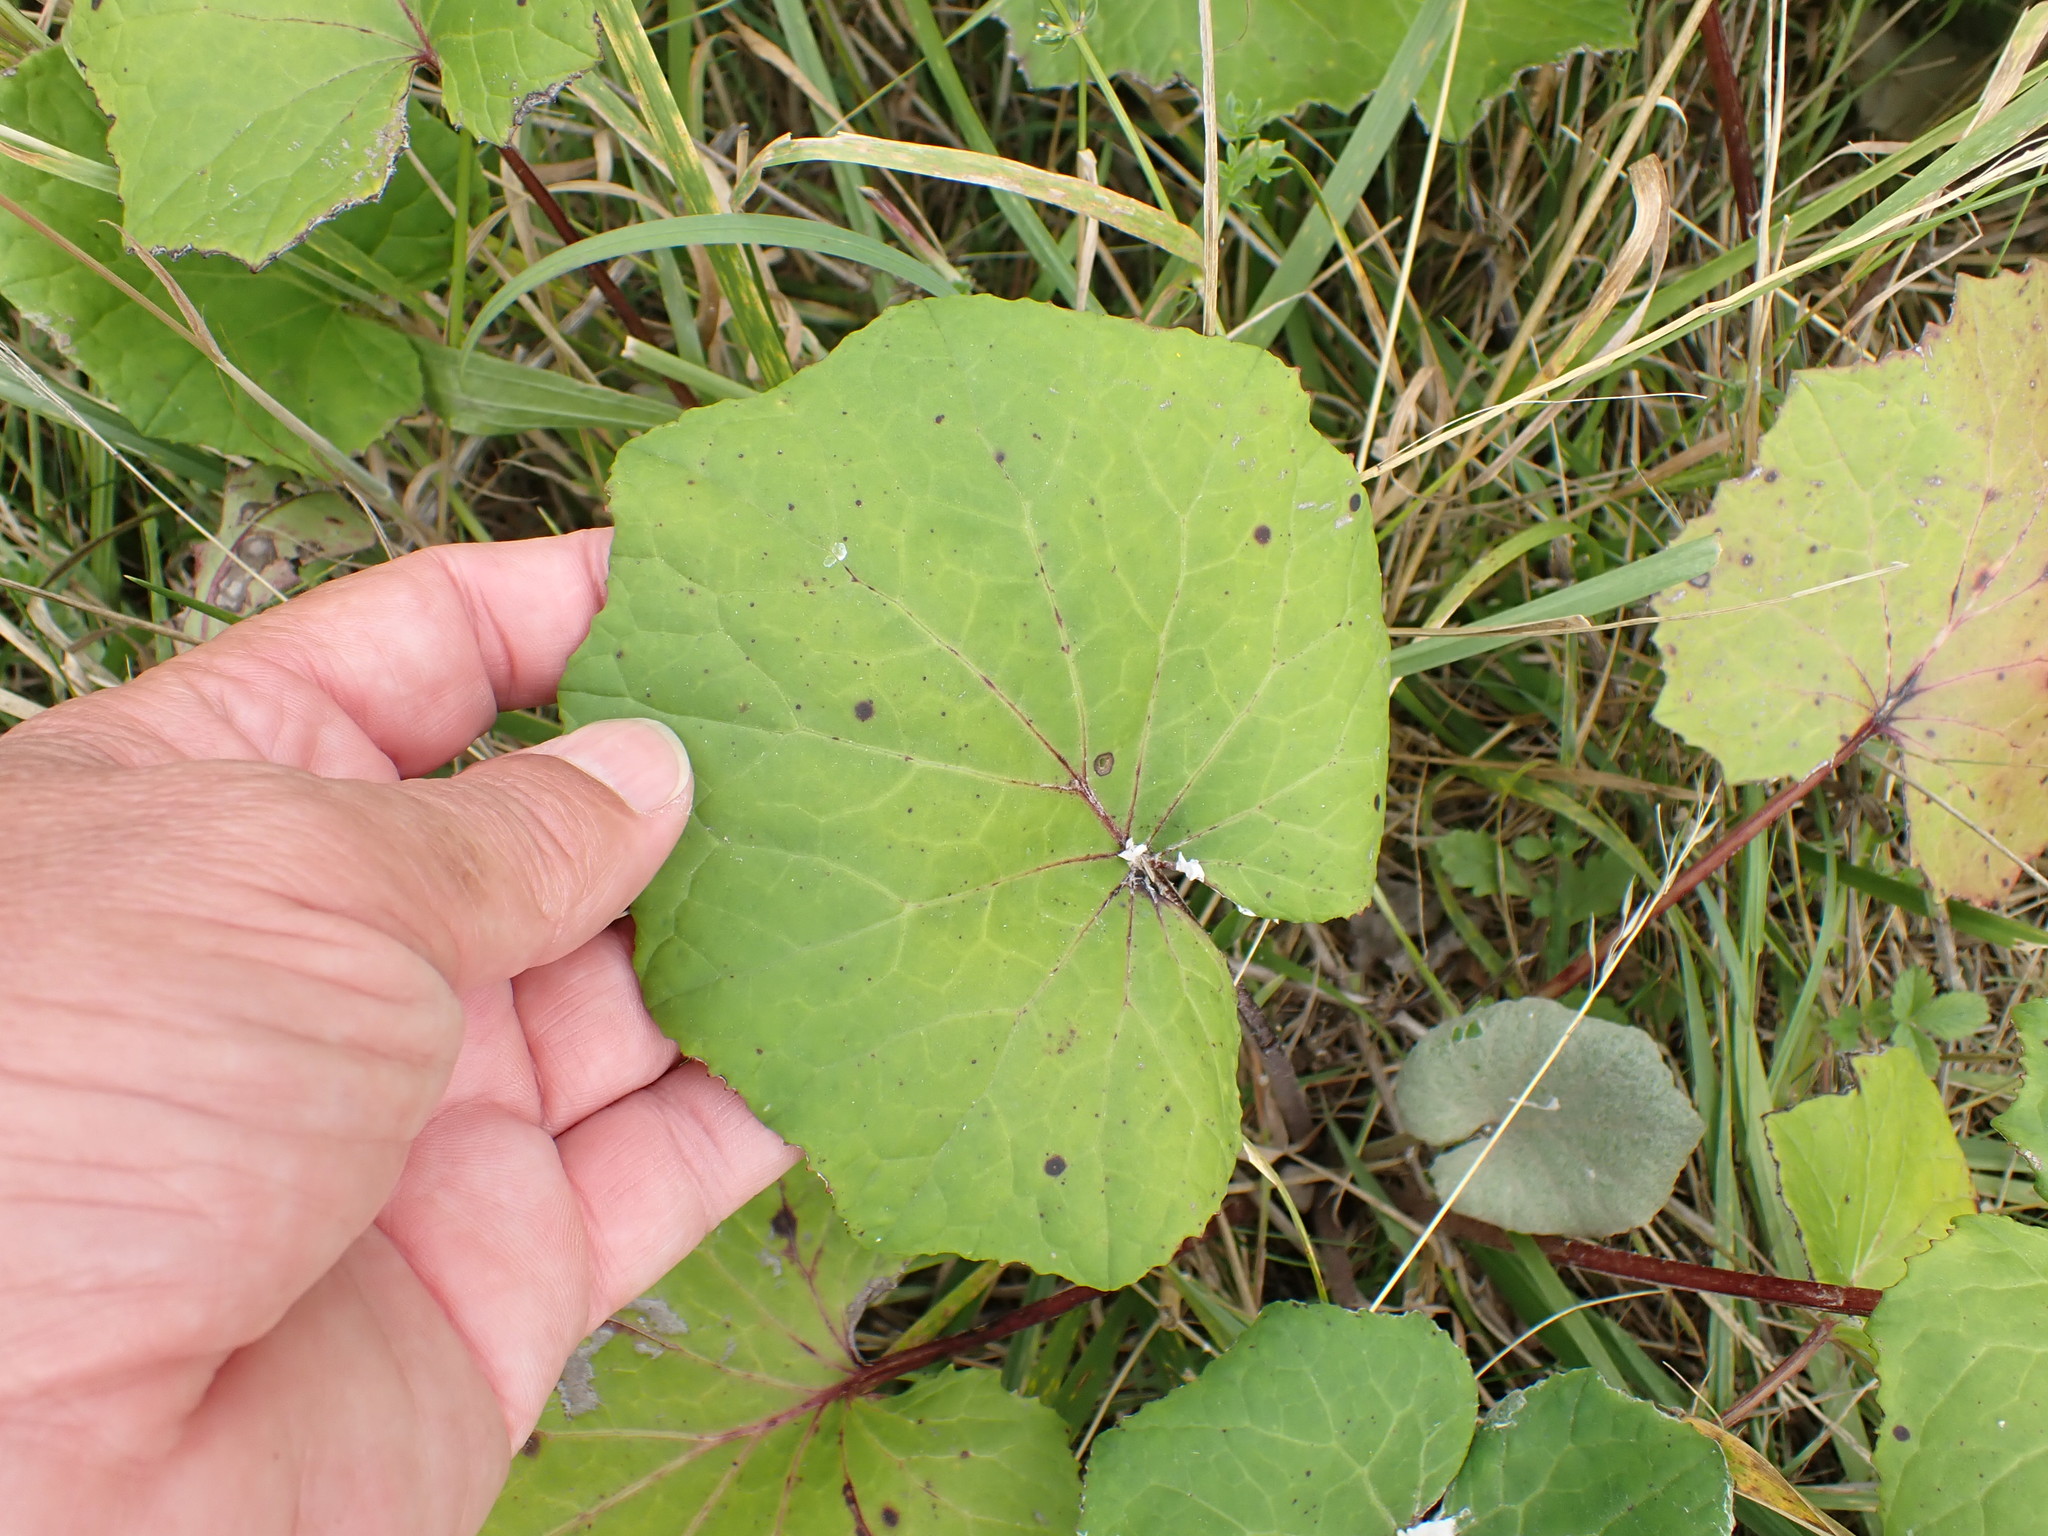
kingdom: Plantae
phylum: Tracheophyta
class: Magnoliopsida
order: Asterales
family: Asteraceae
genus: Tussilago
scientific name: Tussilago farfara
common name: Coltsfoot
